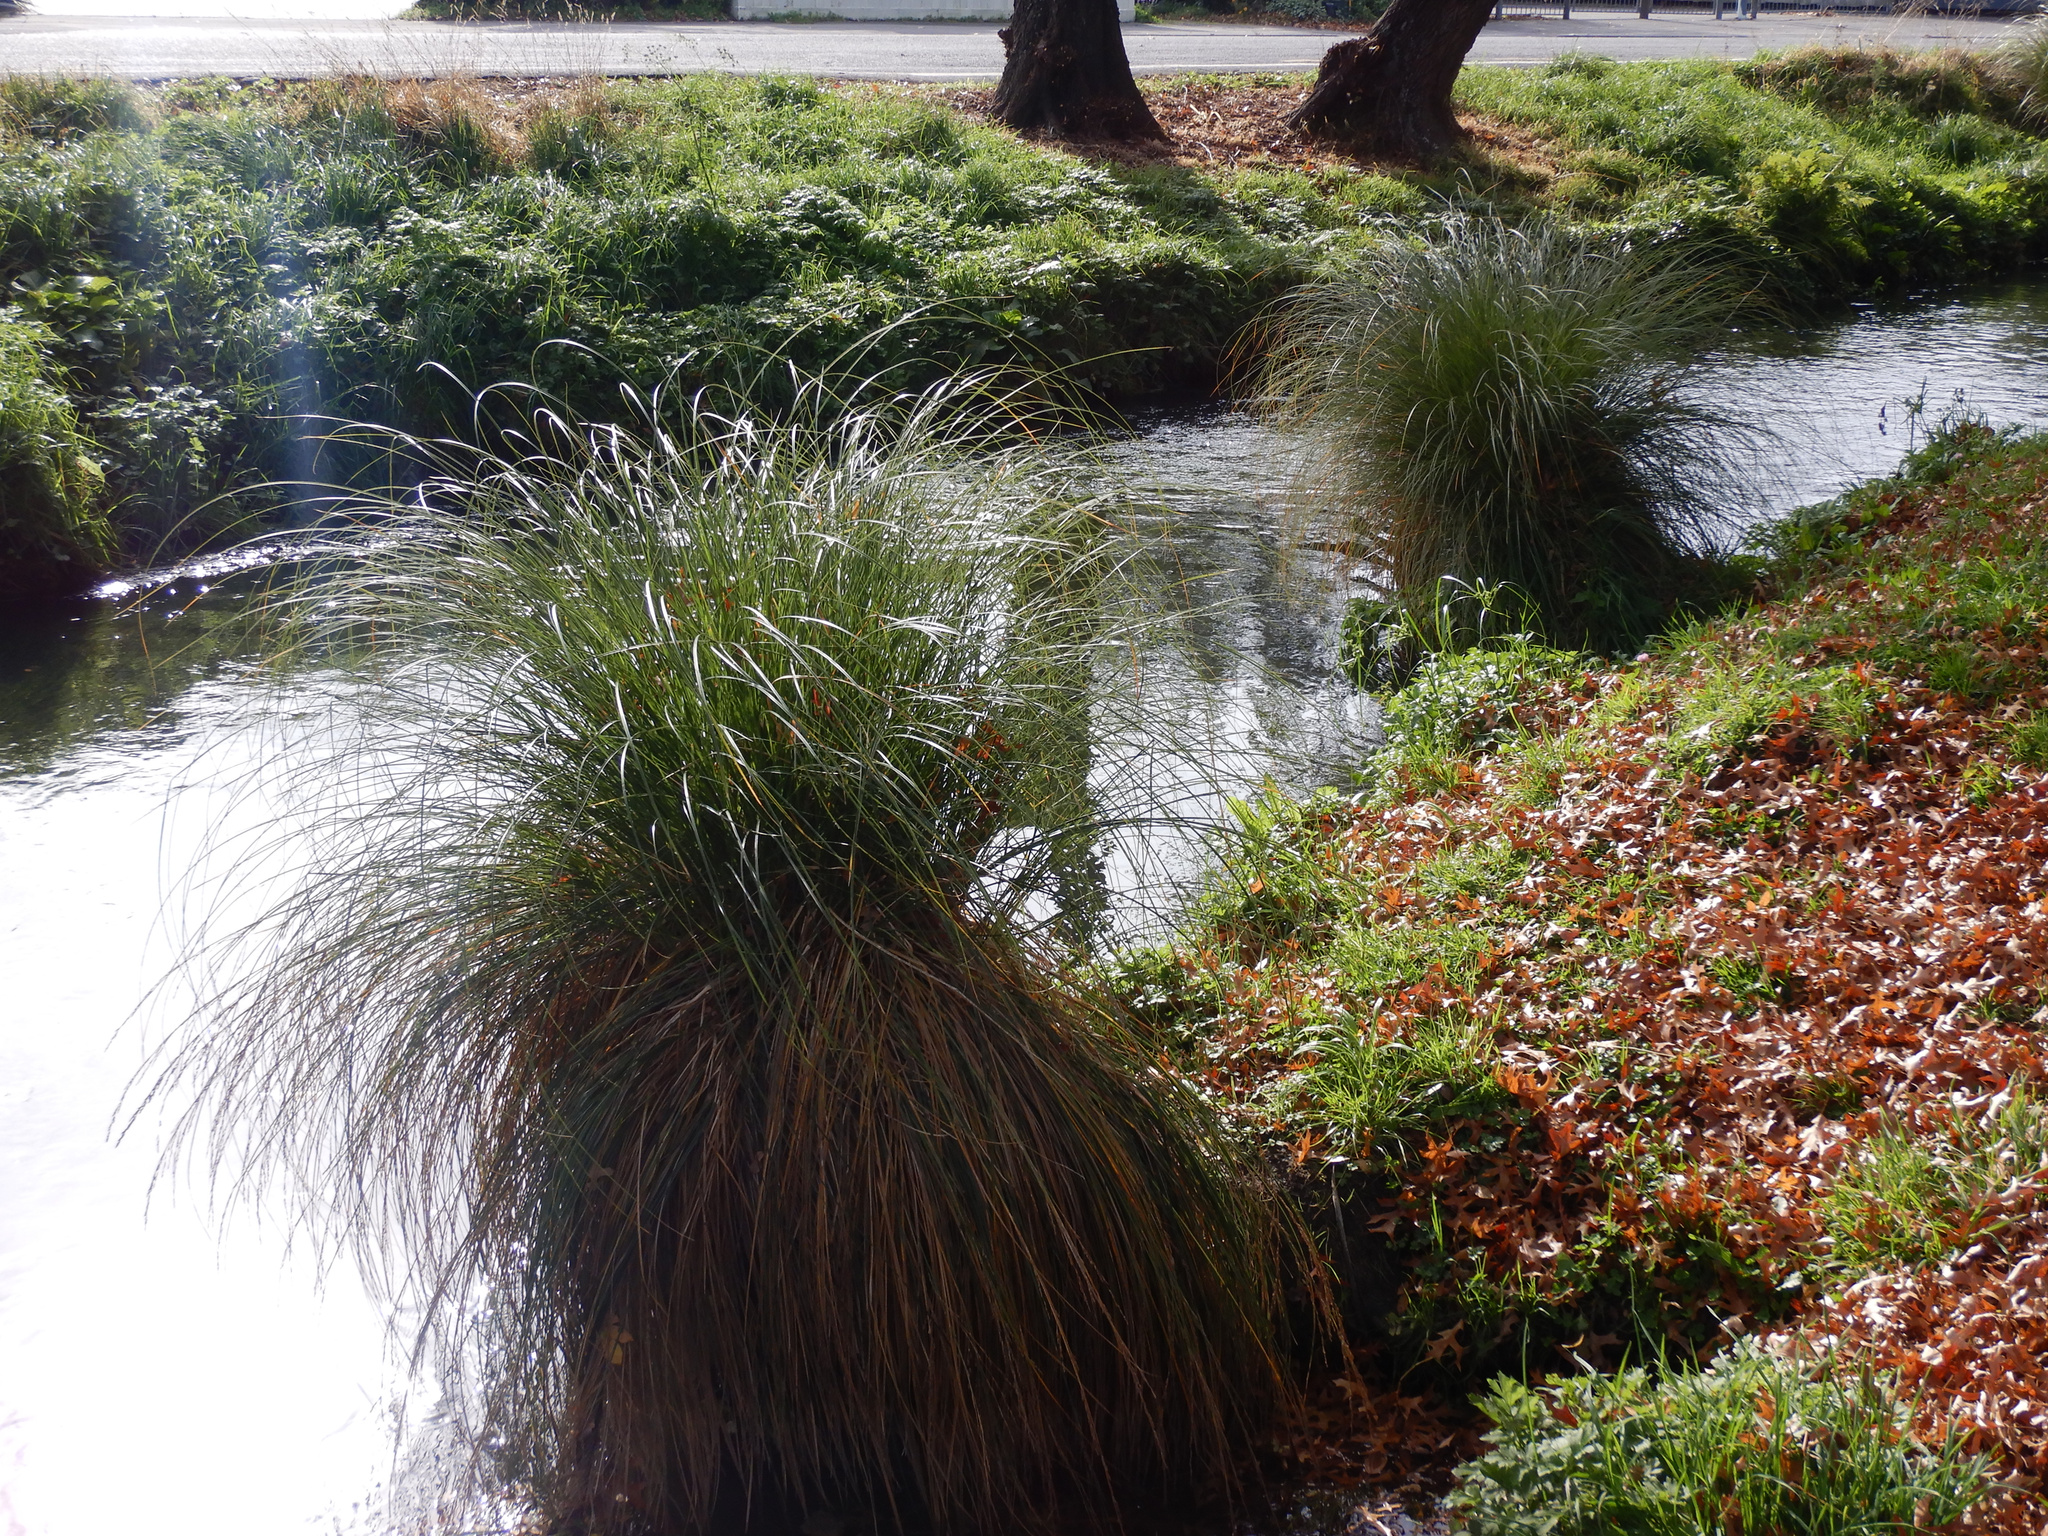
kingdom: Plantae
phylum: Tracheophyta
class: Liliopsida
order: Poales
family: Cyperaceae
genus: Carex
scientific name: Carex secta
